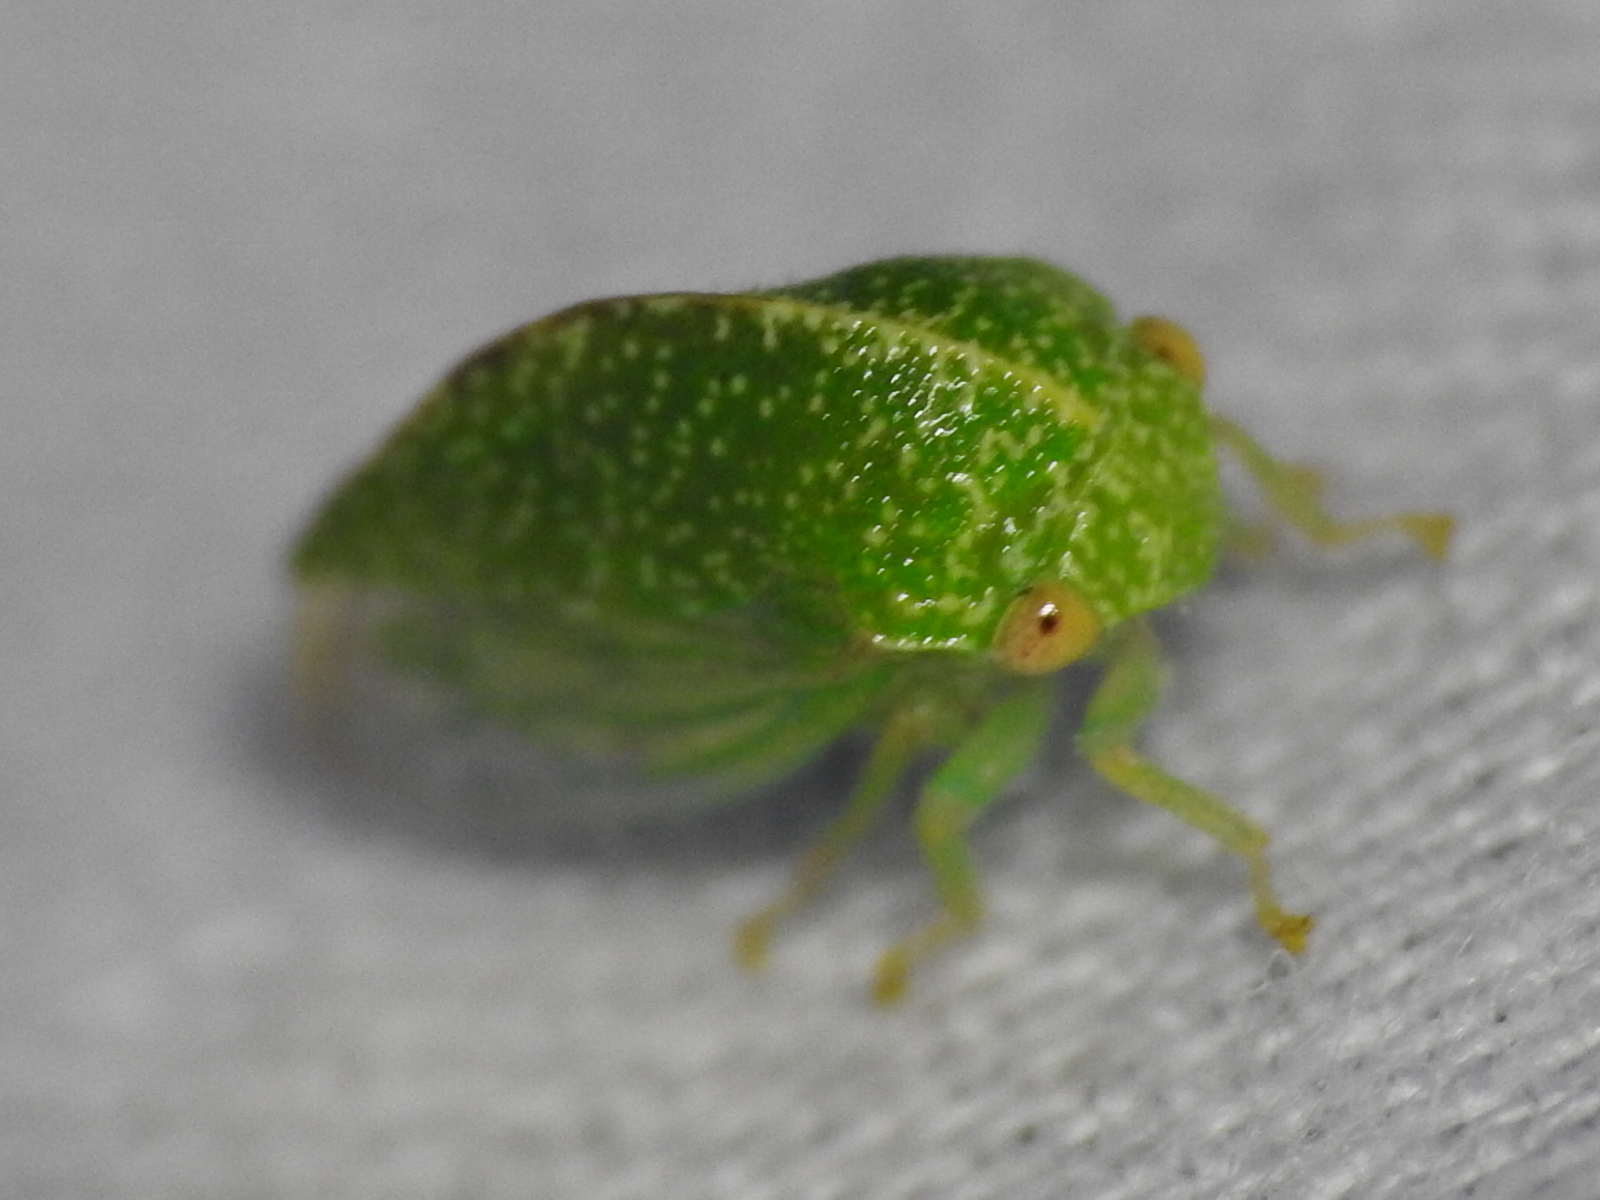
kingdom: Animalia
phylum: Arthropoda
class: Insecta
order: Hemiptera
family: Membracidae
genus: Cyrtolobus
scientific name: Cyrtolobus dixianus
